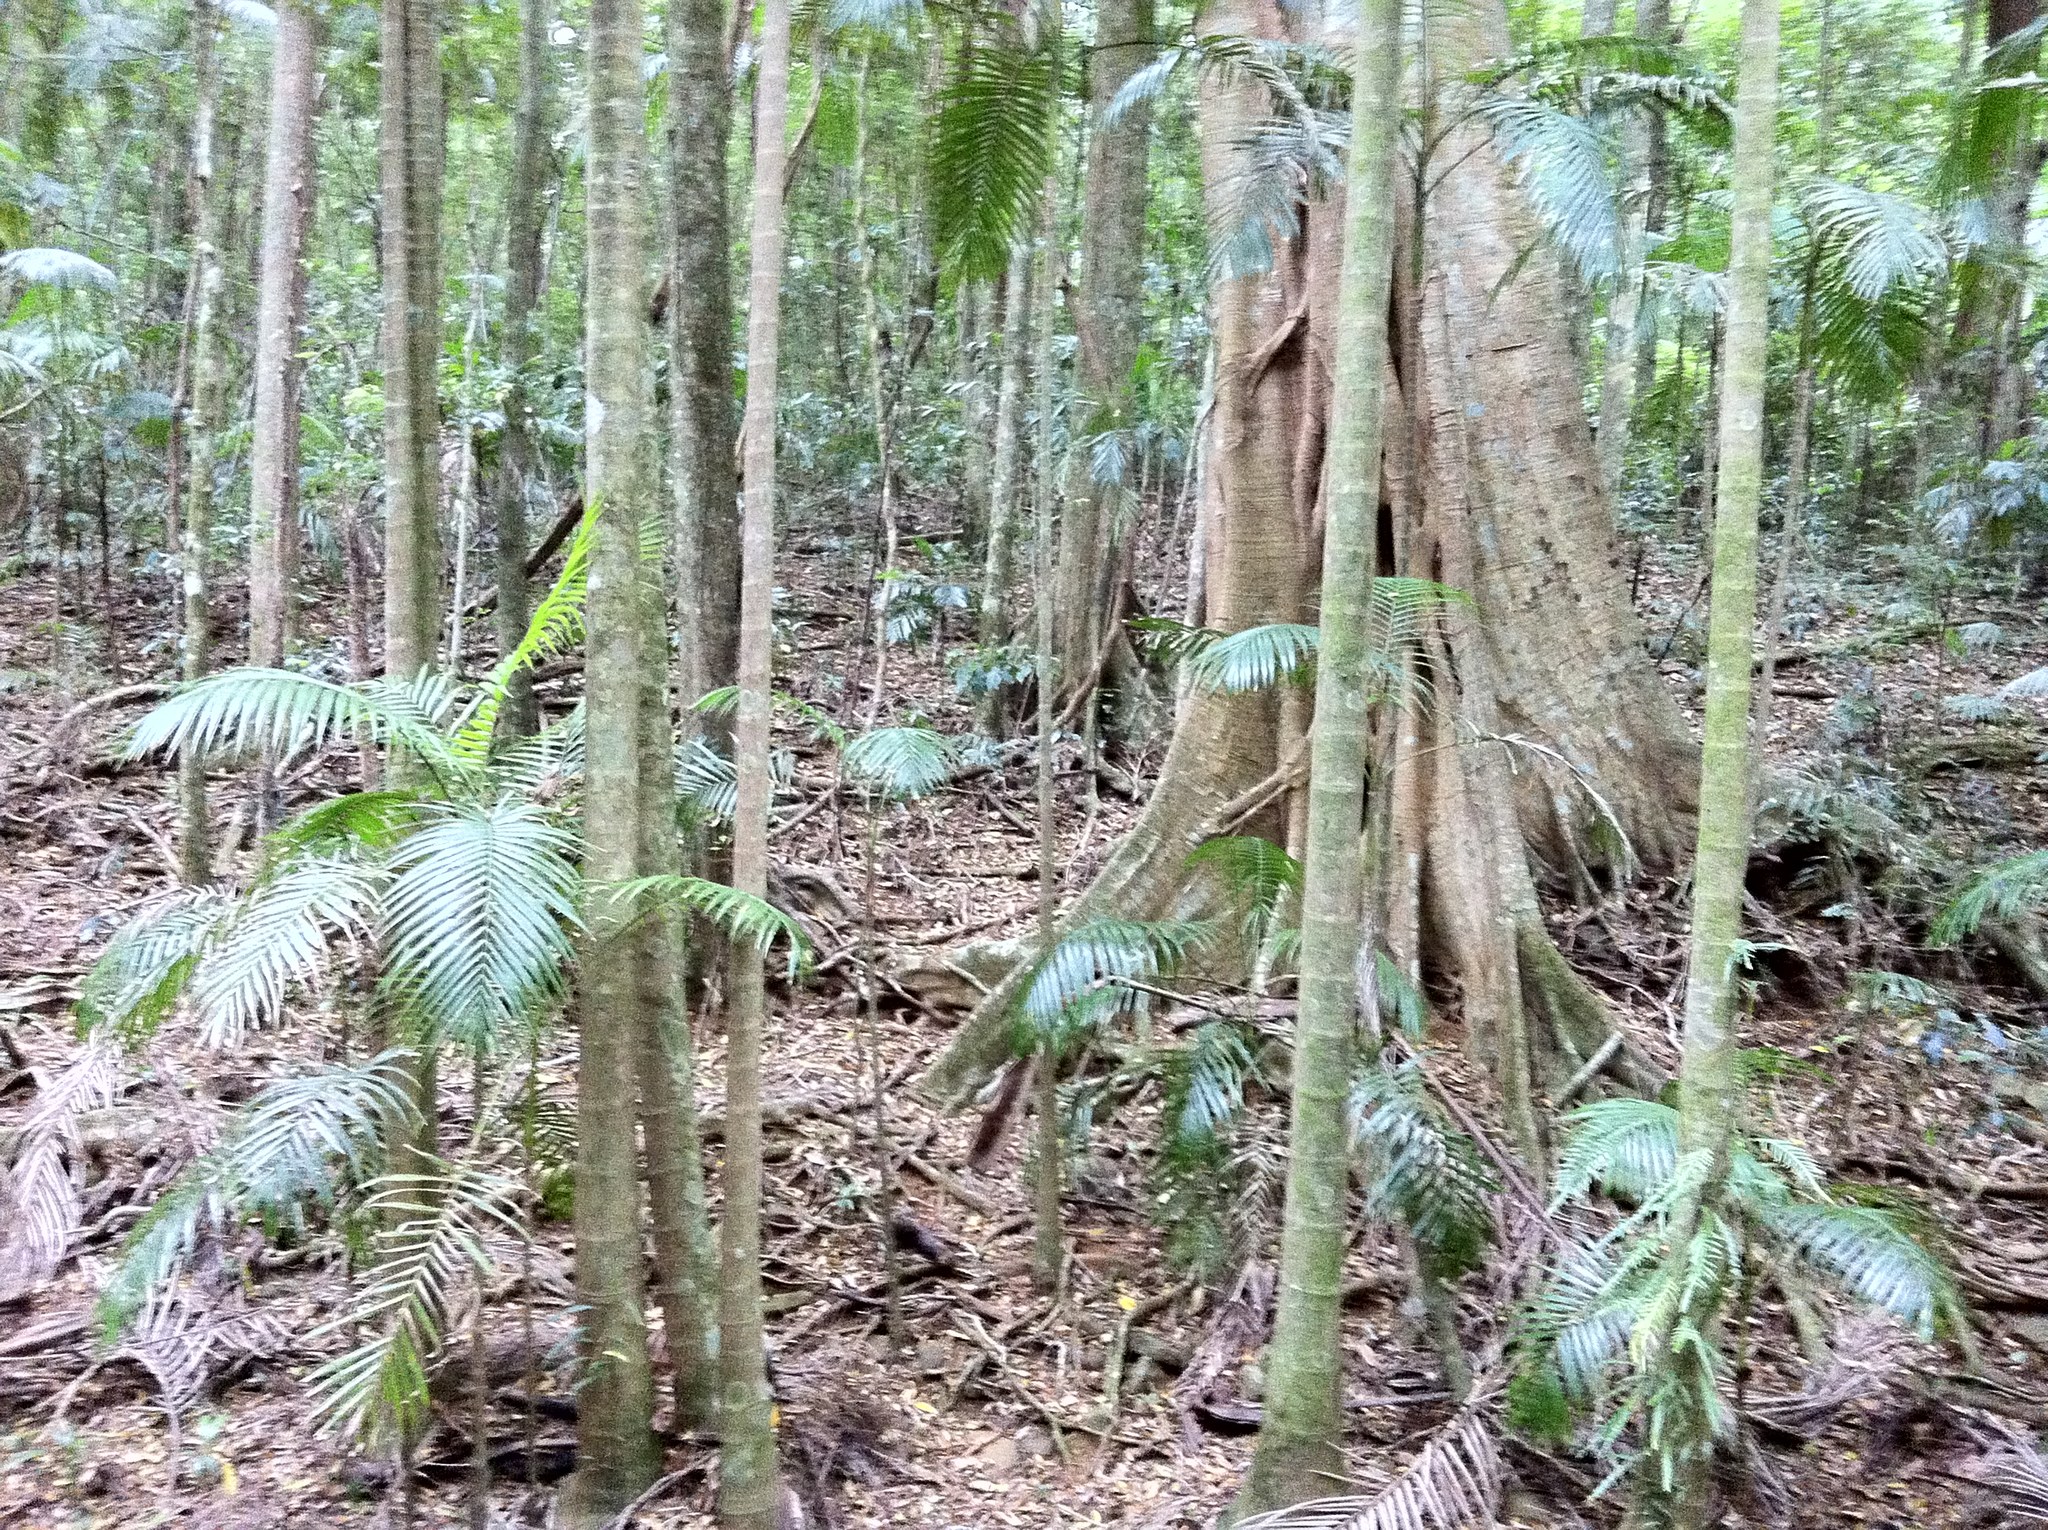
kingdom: Plantae
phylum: Tracheophyta
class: Liliopsida
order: Arecales
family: Arecaceae
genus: Archontophoenix
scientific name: Archontophoenix cunninghamiana
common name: Piccabeen bangalow palm
